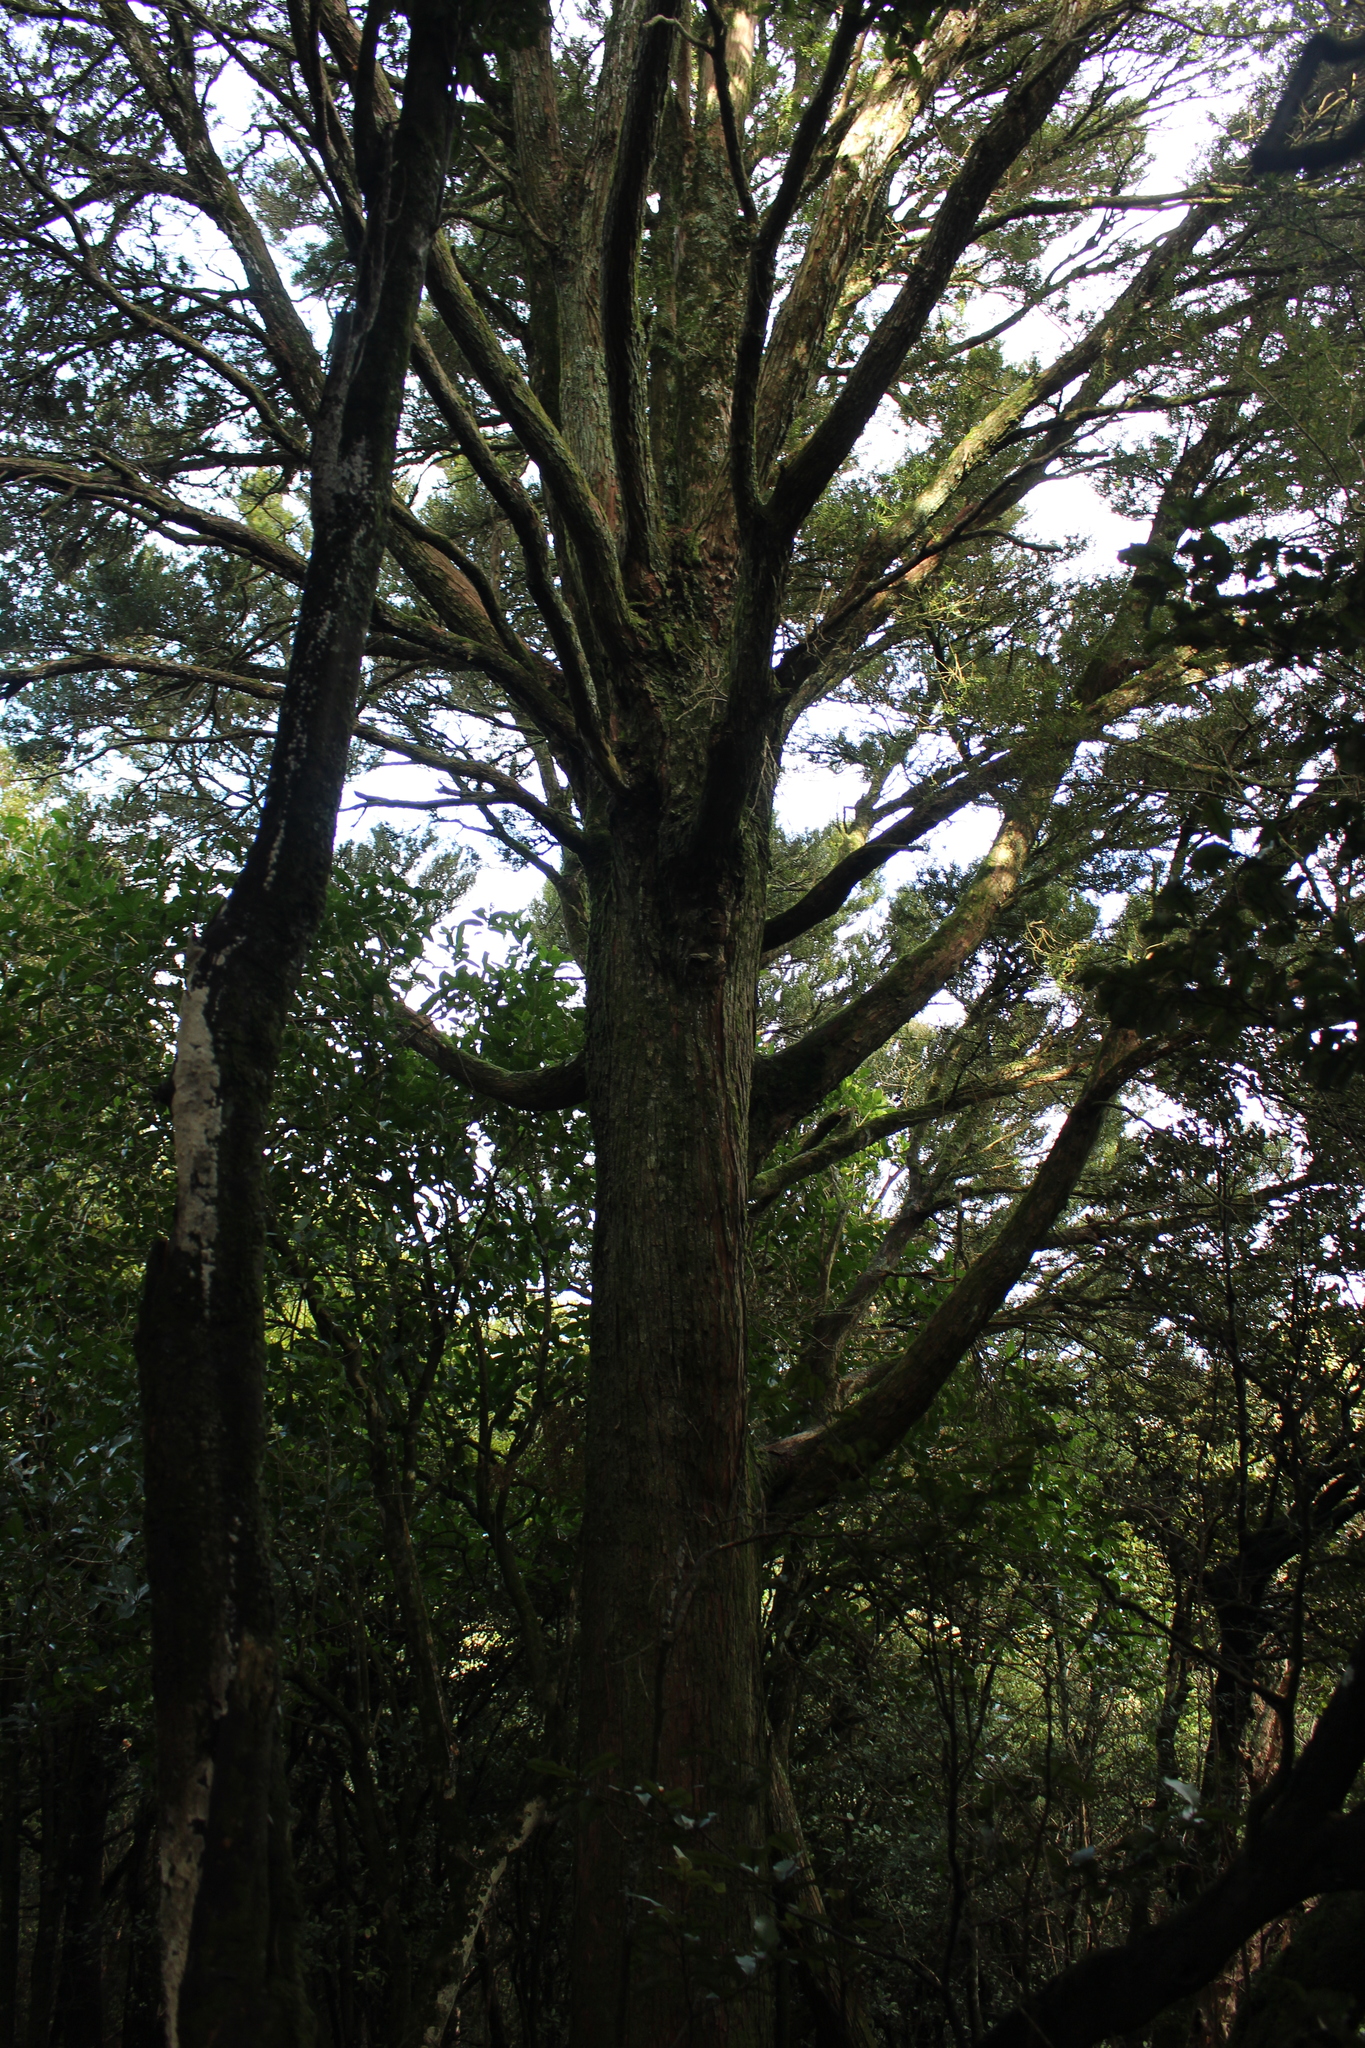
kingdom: Plantae
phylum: Tracheophyta
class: Pinopsida
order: Pinales
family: Podocarpaceae
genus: Podocarpus
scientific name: Podocarpus totara
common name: Totara
